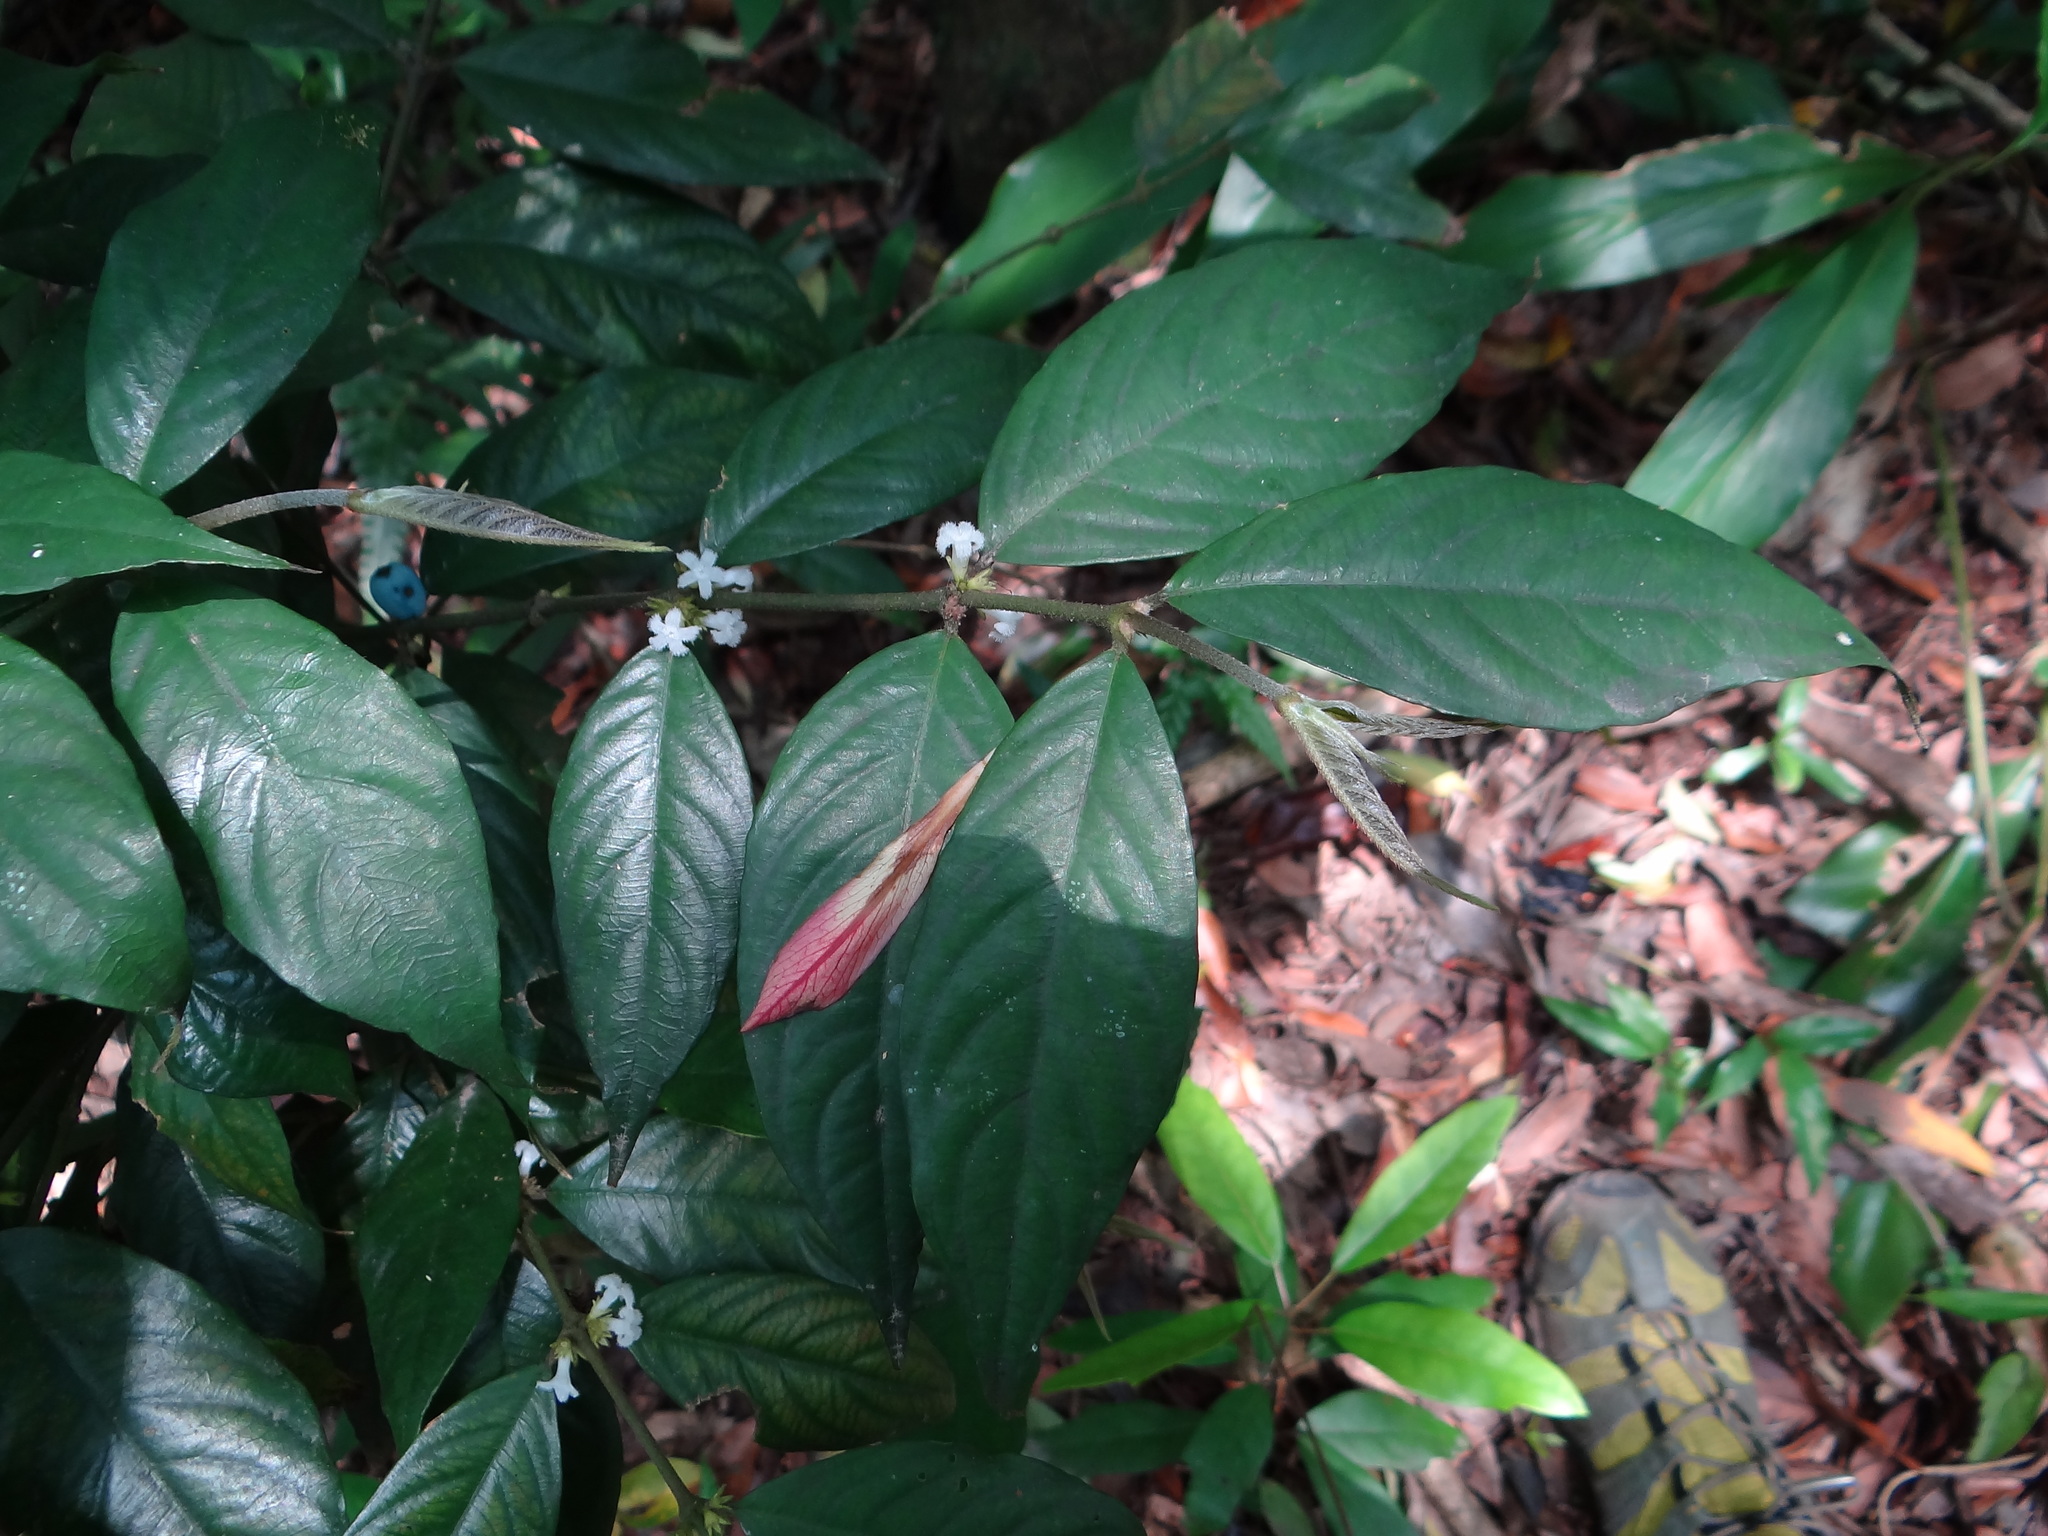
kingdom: Plantae
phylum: Tracheophyta
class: Magnoliopsida
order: Gentianales
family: Rubiaceae
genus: Lasianthus
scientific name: Lasianthus formosensis
